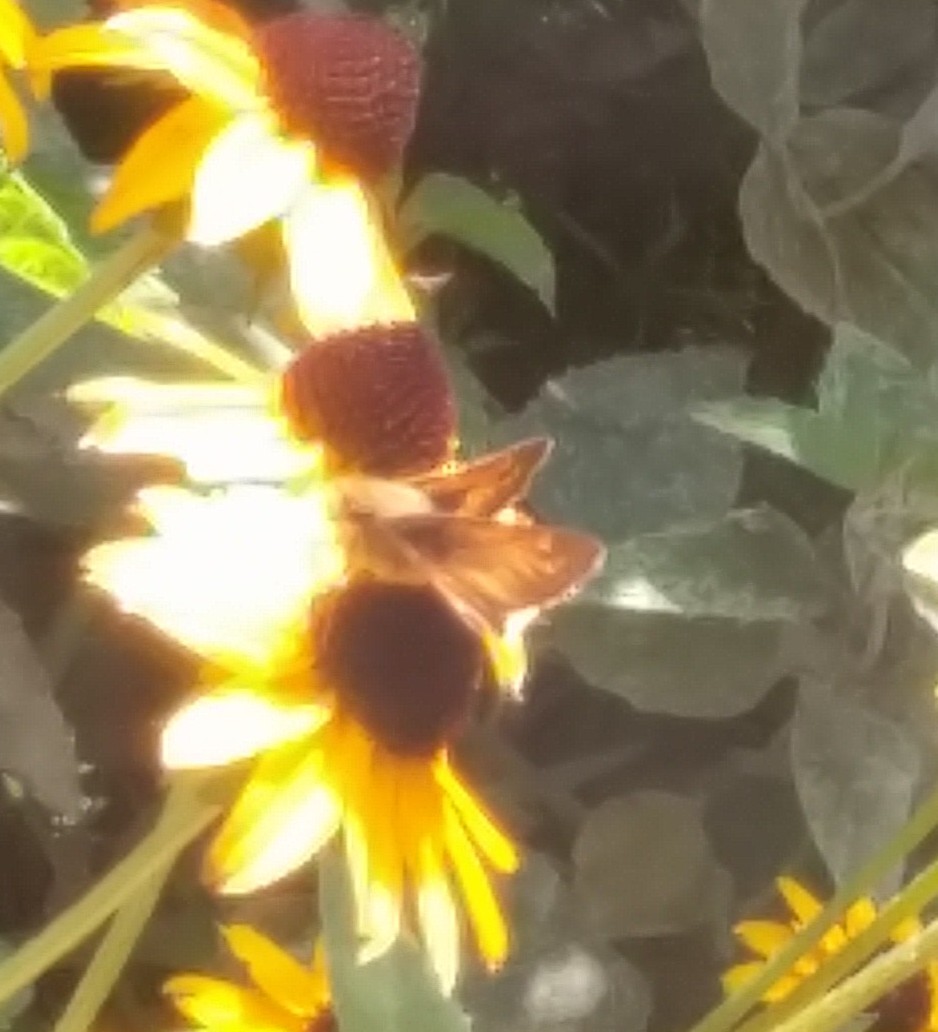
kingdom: Animalia
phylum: Arthropoda
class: Insecta
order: Lepidoptera
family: Hesperiidae
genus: Atalopedes
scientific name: Atalopedes
